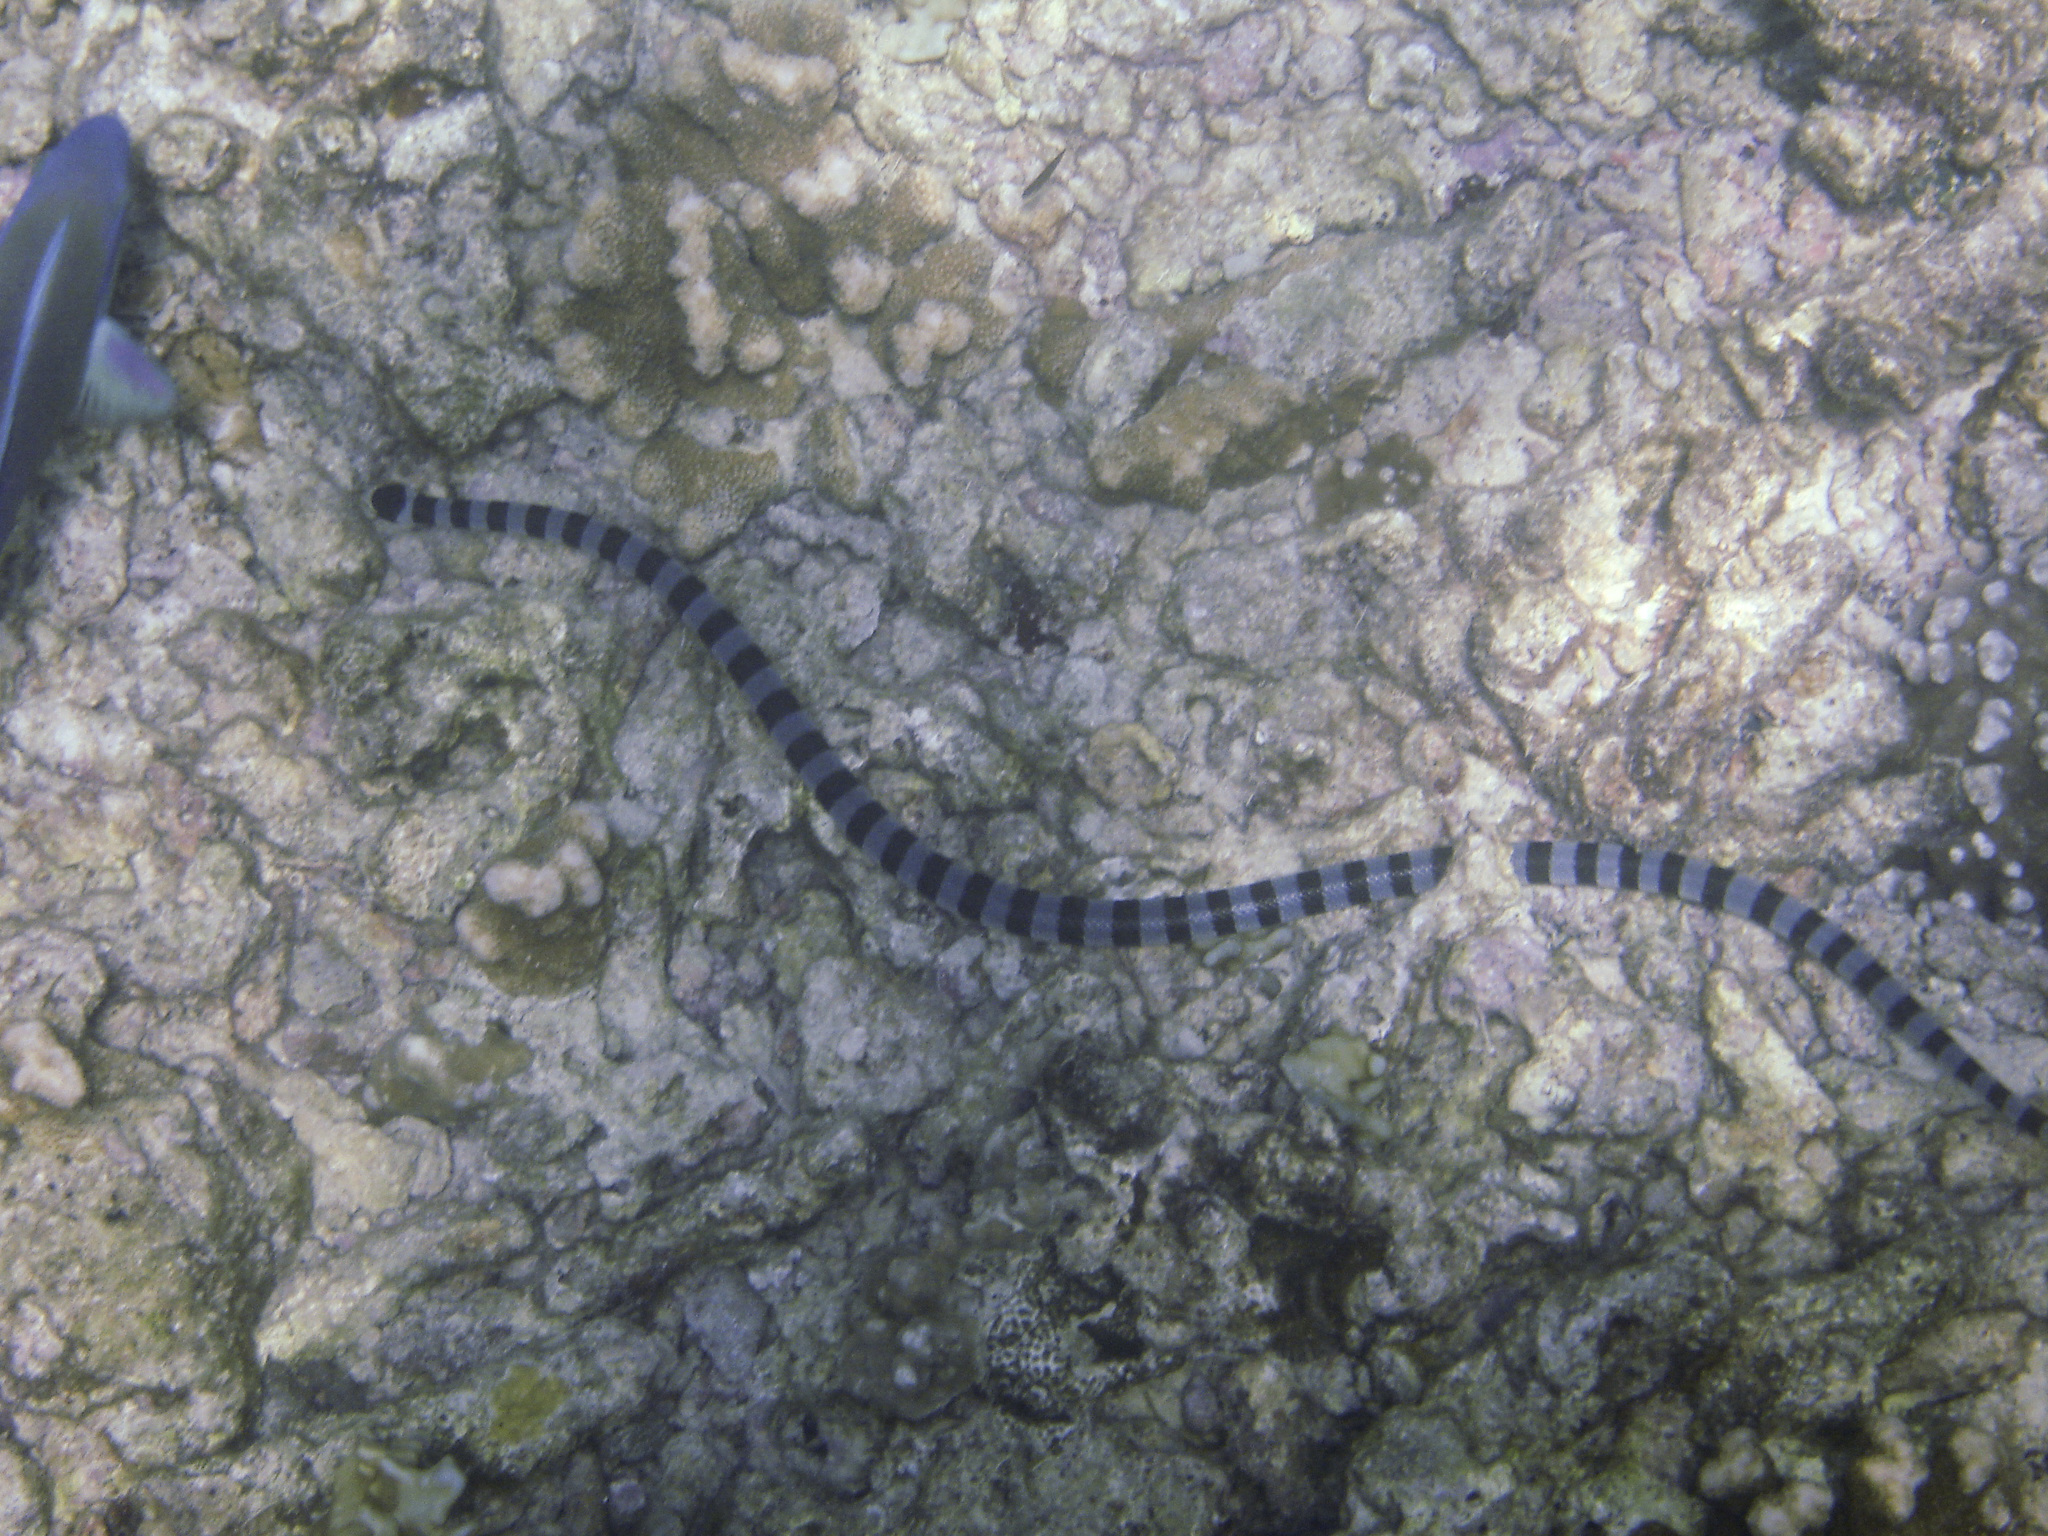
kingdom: Animalia
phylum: Chordata
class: Squamata
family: Elapidae
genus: Laticauda
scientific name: Laticauda colubrina
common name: Yellow-lipped sea krait
